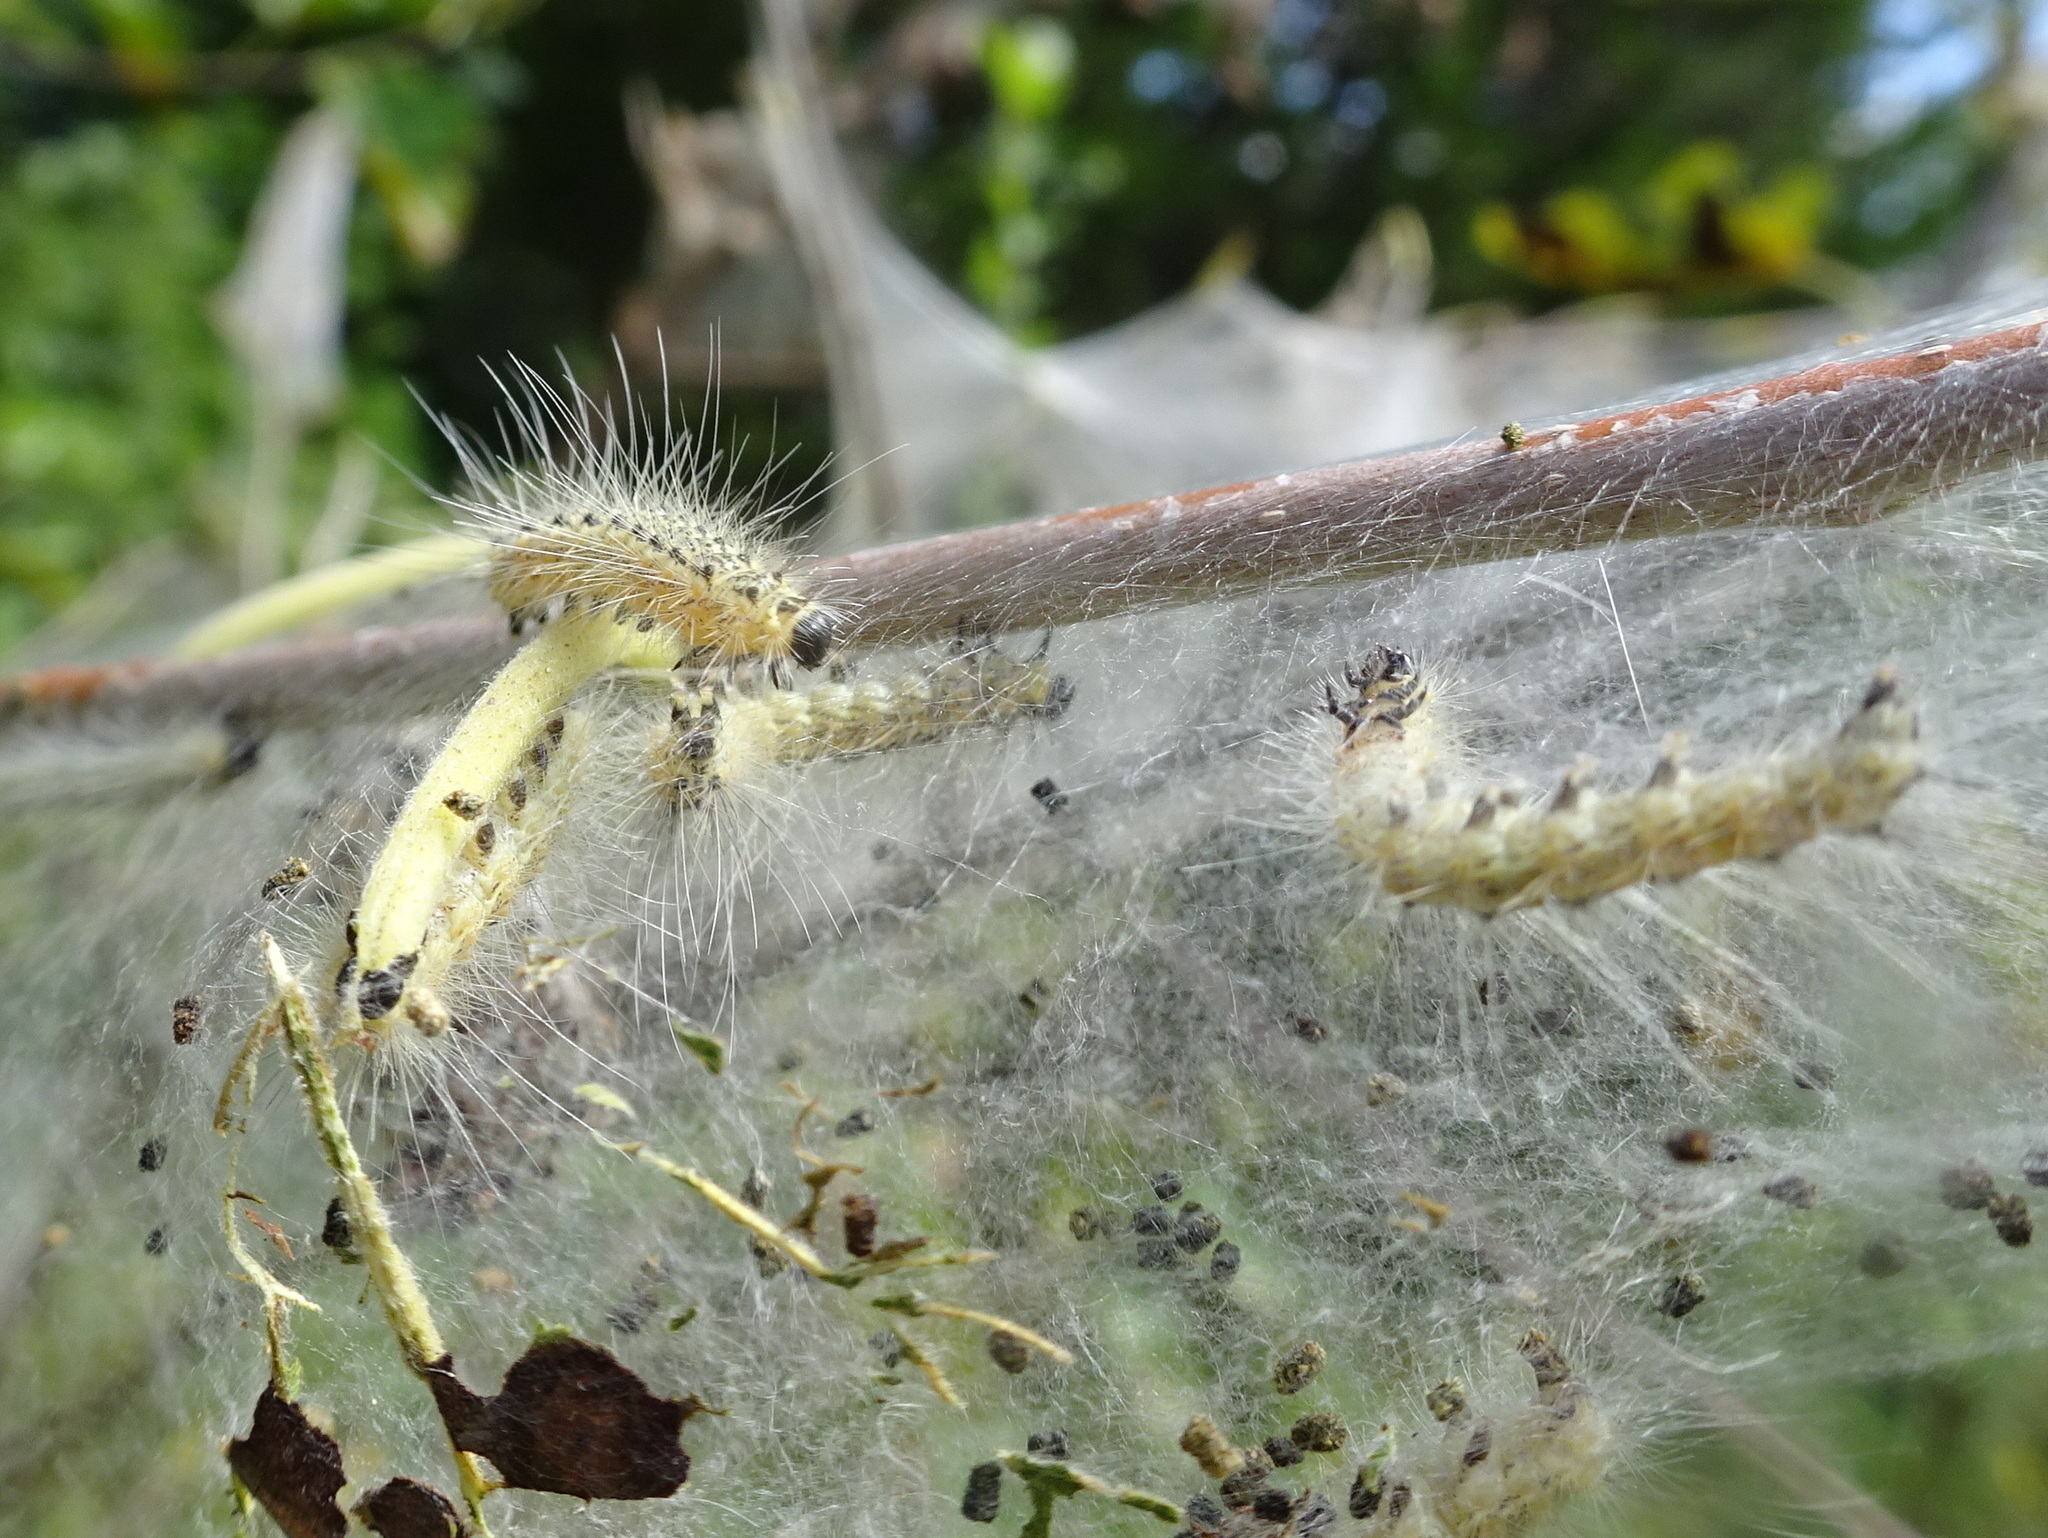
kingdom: Animalia
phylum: Arthropoda
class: Insecta
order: Lepidoptera
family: Erebidae
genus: Hyphantria
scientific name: Hyphantria cunea
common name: American white moth
